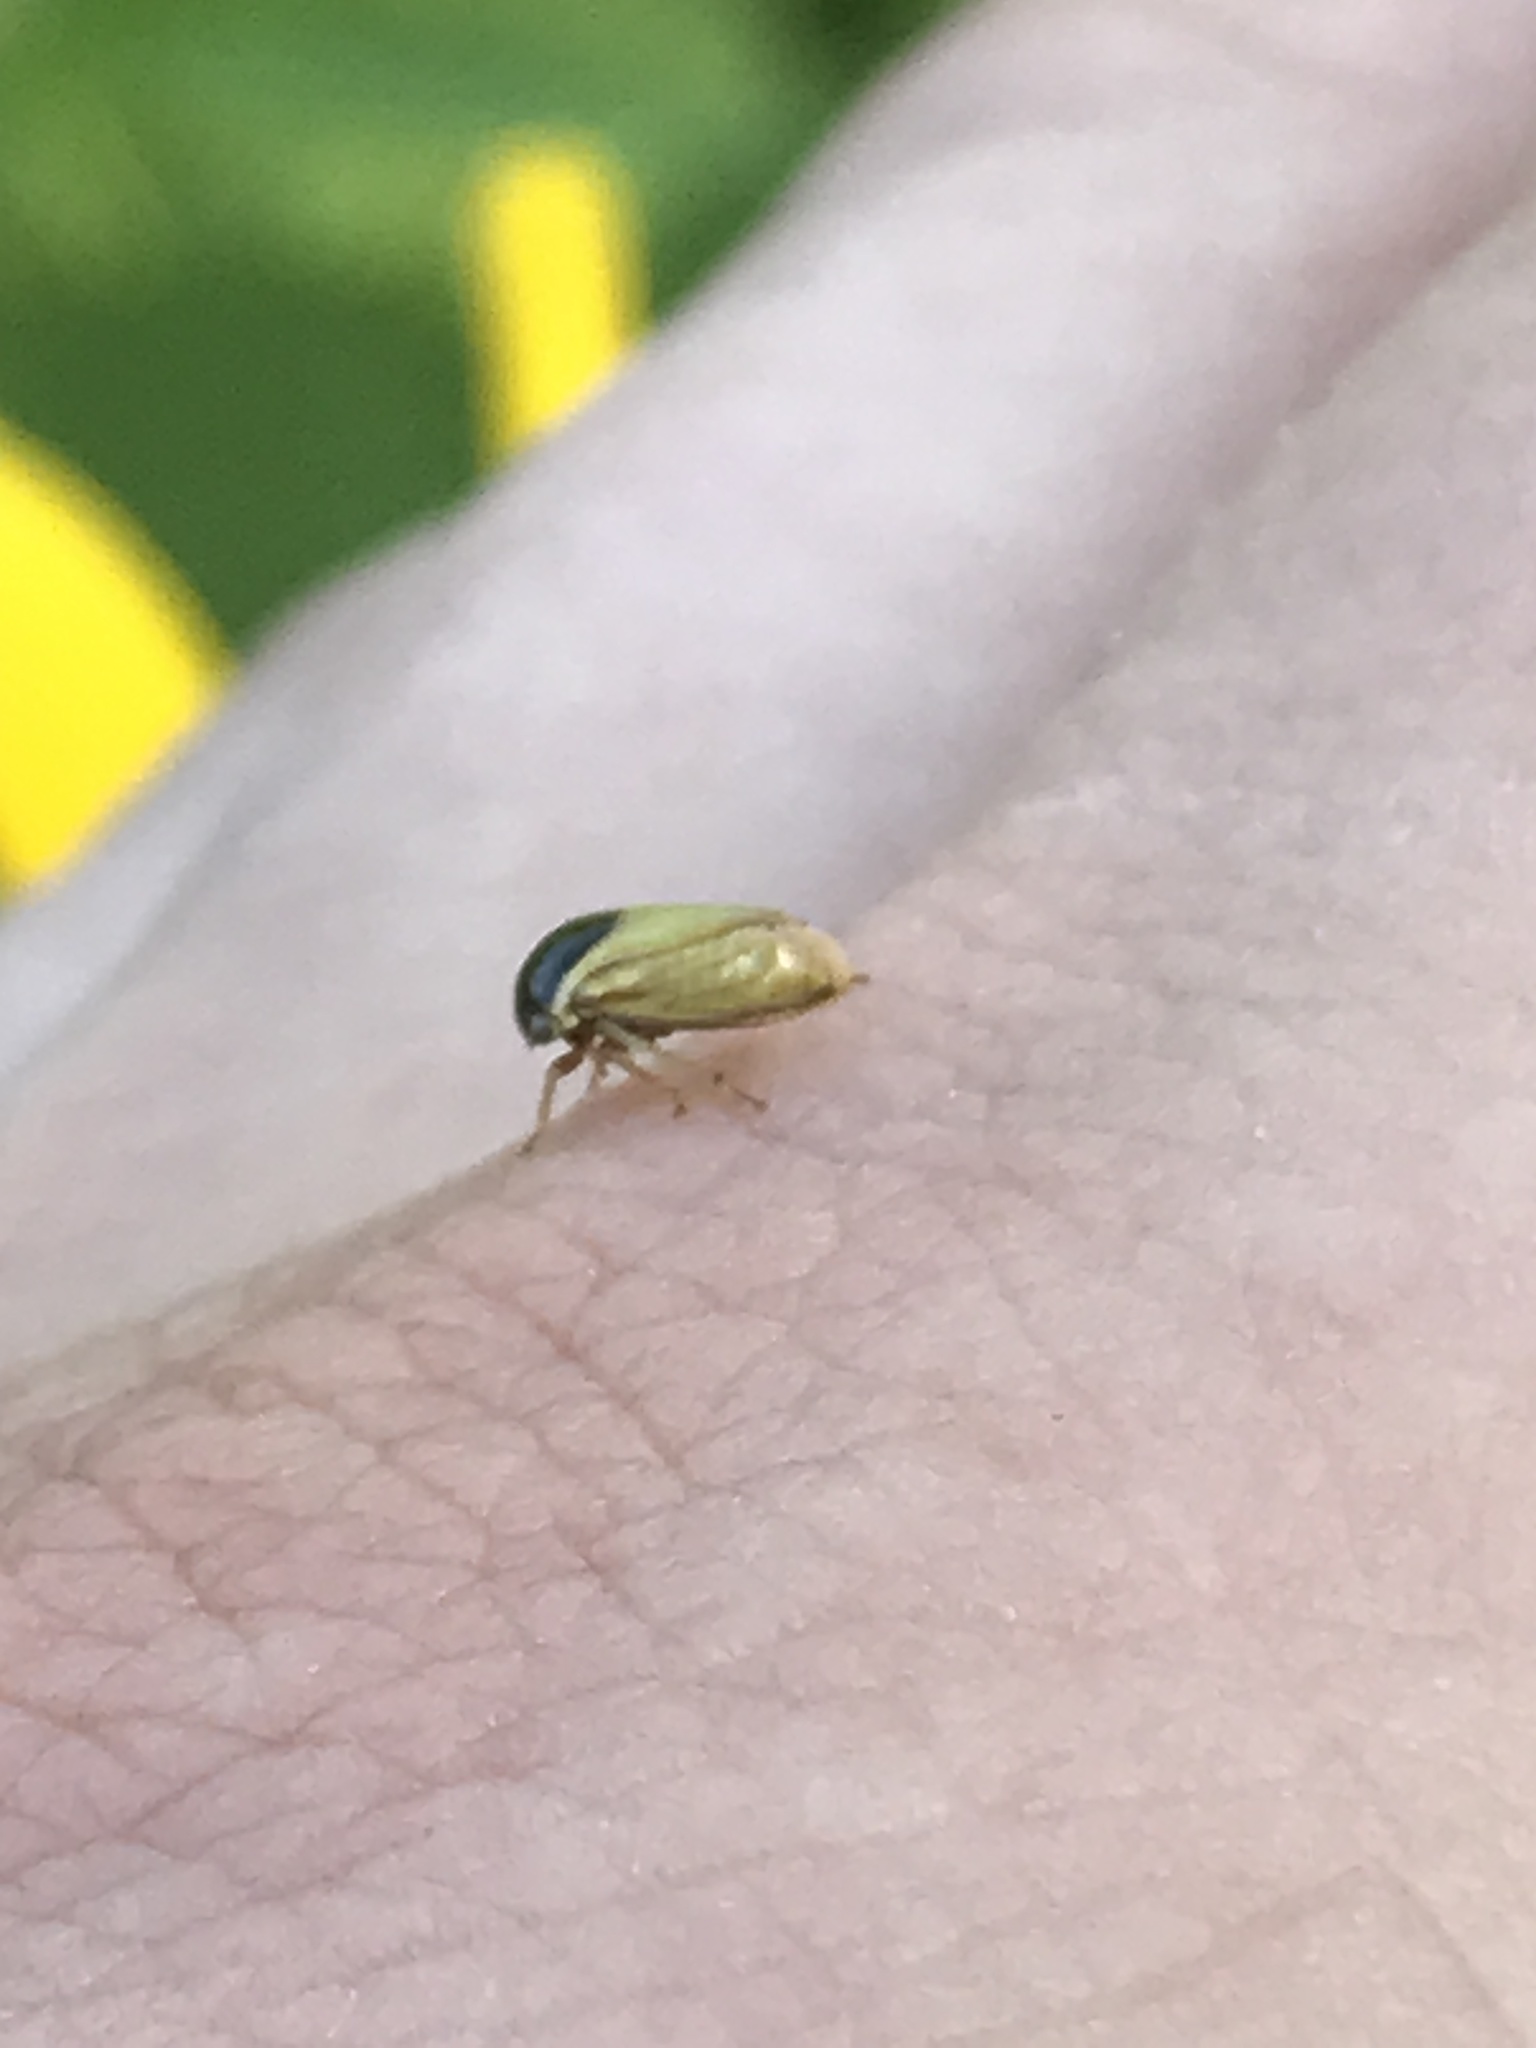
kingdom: Animalia
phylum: Arthropoda
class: Insecta
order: Hemiptera
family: Membracidae
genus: Acutalis
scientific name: Acutalis tartarea
